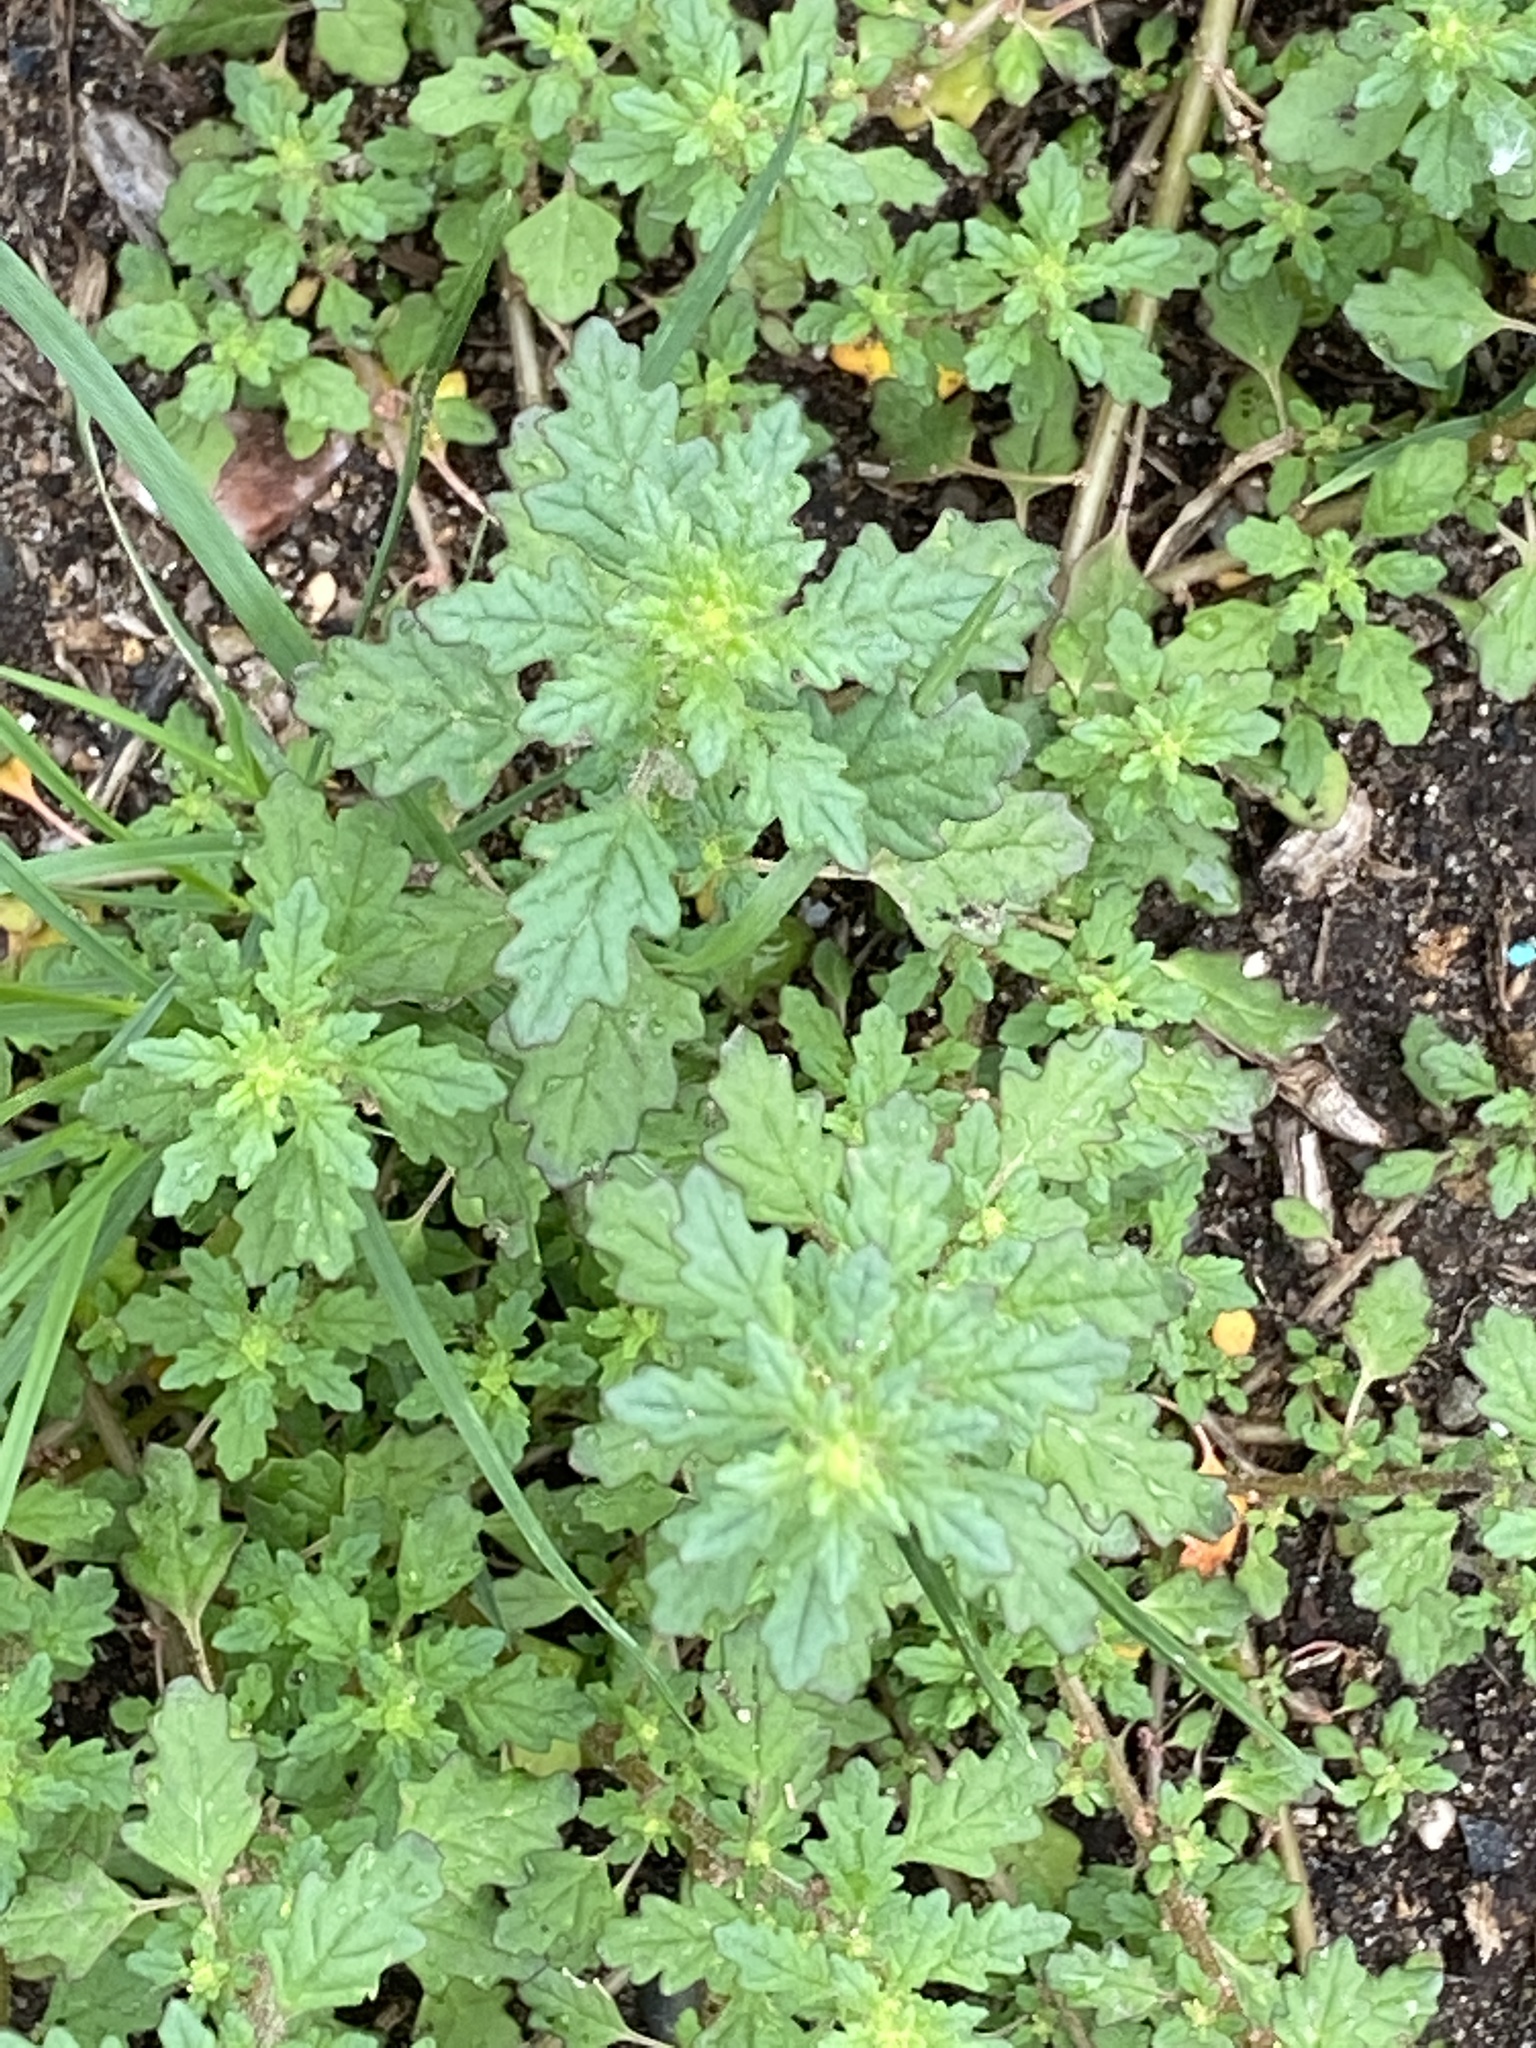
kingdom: Plantae
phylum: Tracheophyta
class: Magnoliopsida
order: Caryophyllales
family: Amaranthaceae
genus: Dysphania
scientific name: Dysphania pumilio
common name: Clammy goosefoot
